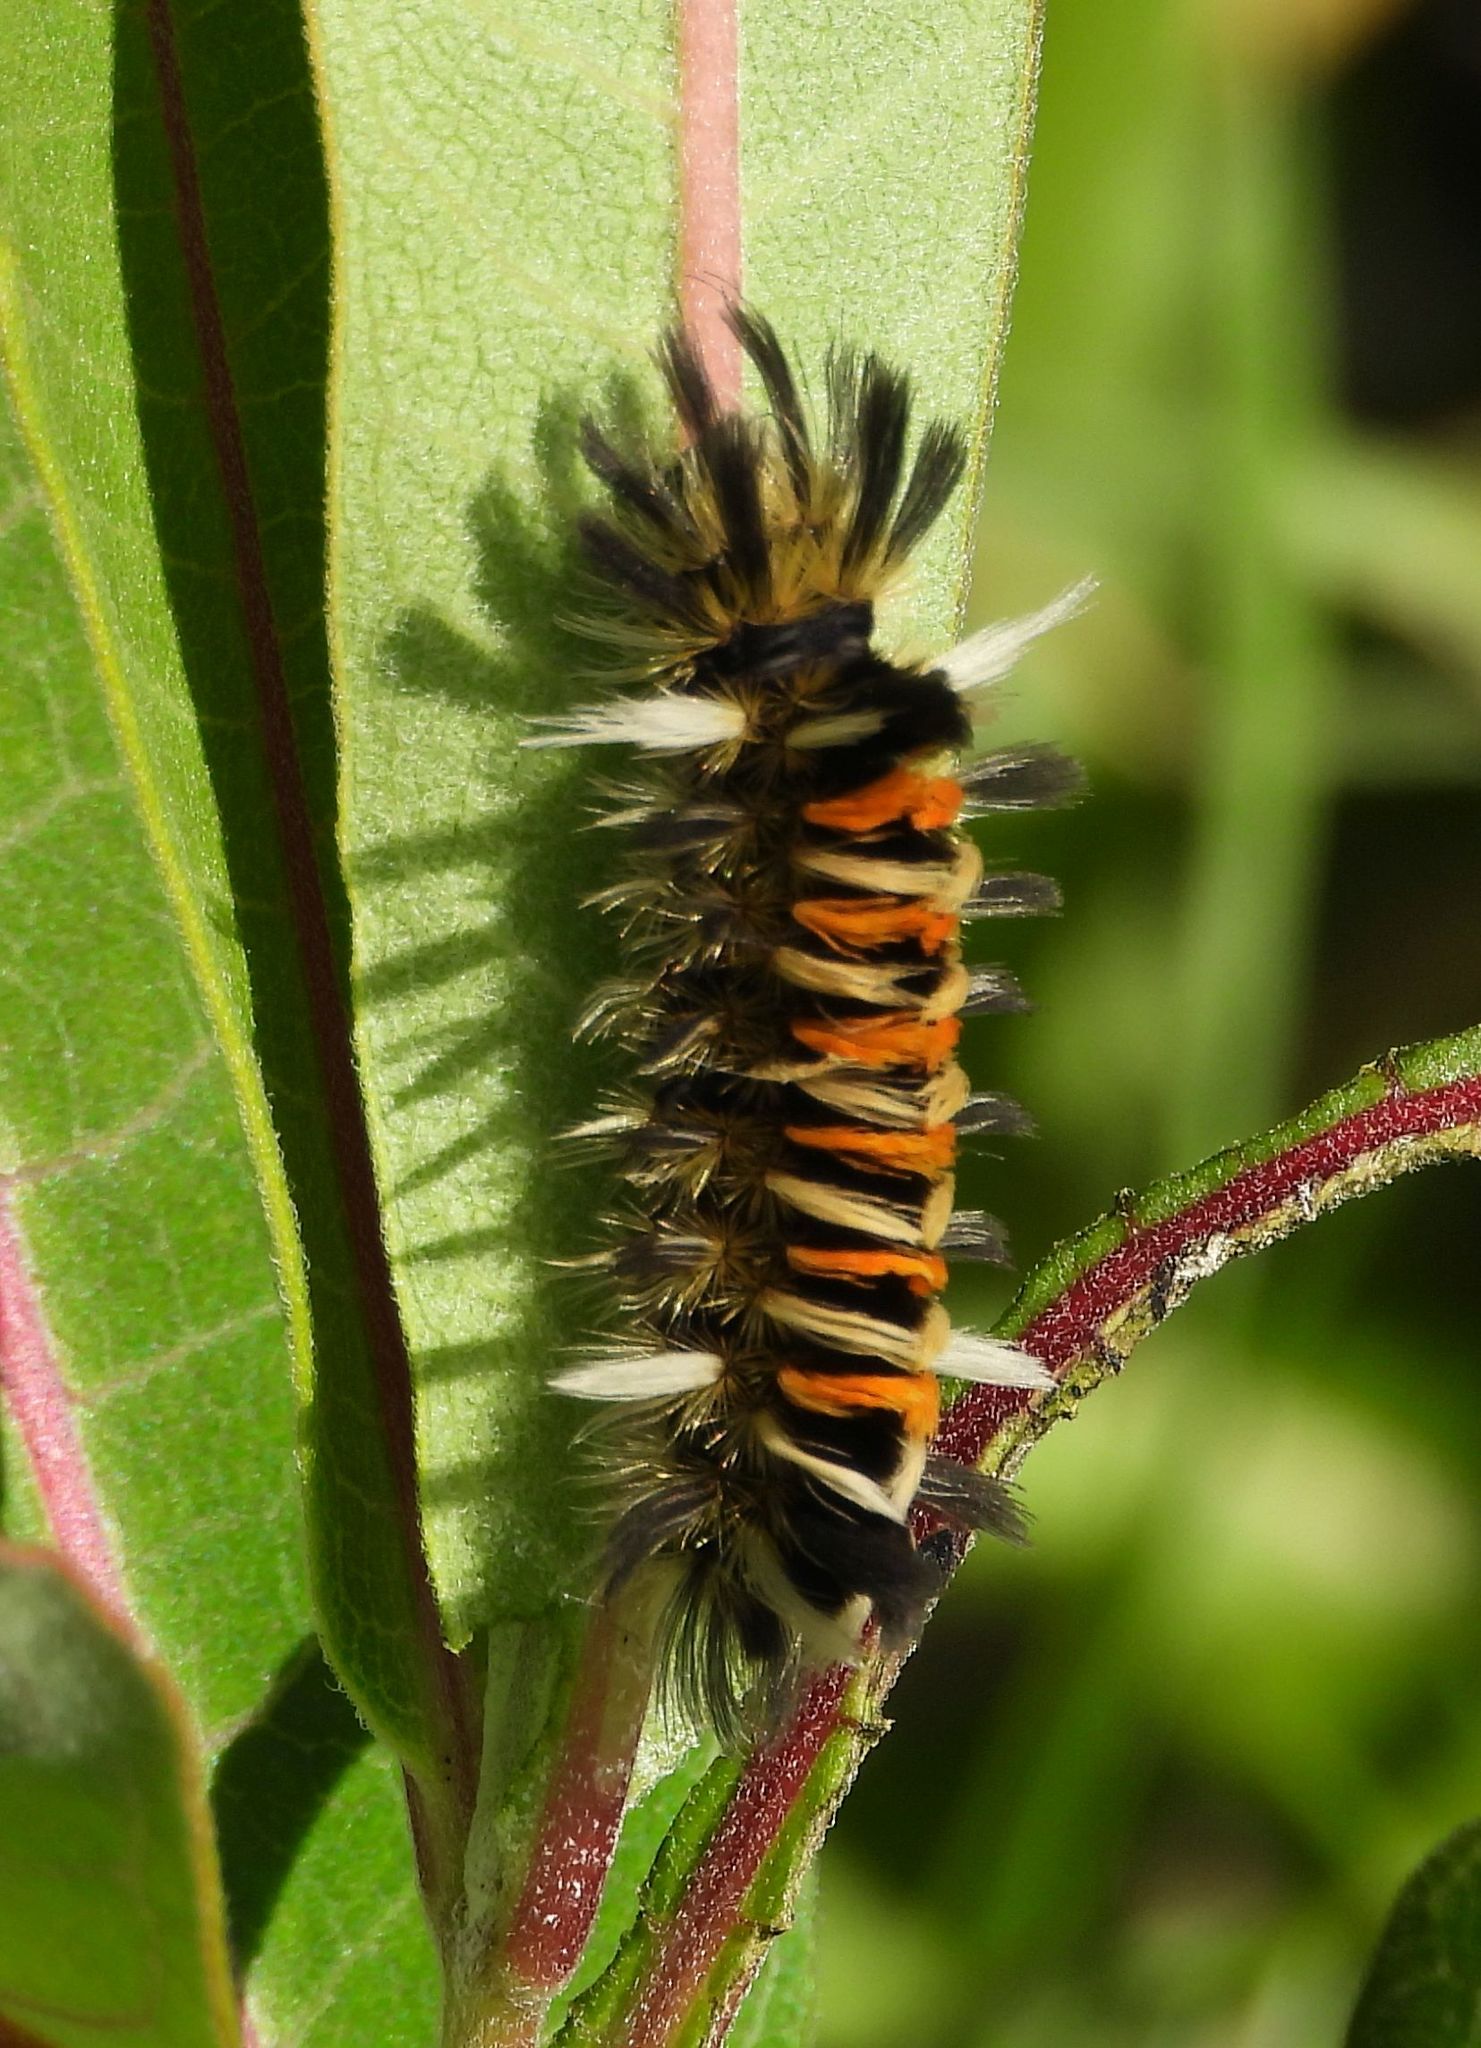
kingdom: Animalia
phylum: Arthropoda
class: Insecta
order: Lepidoptera
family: Erebidae
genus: Euchaetes
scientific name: Euchaetes egle
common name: Milkweed tussock moth
